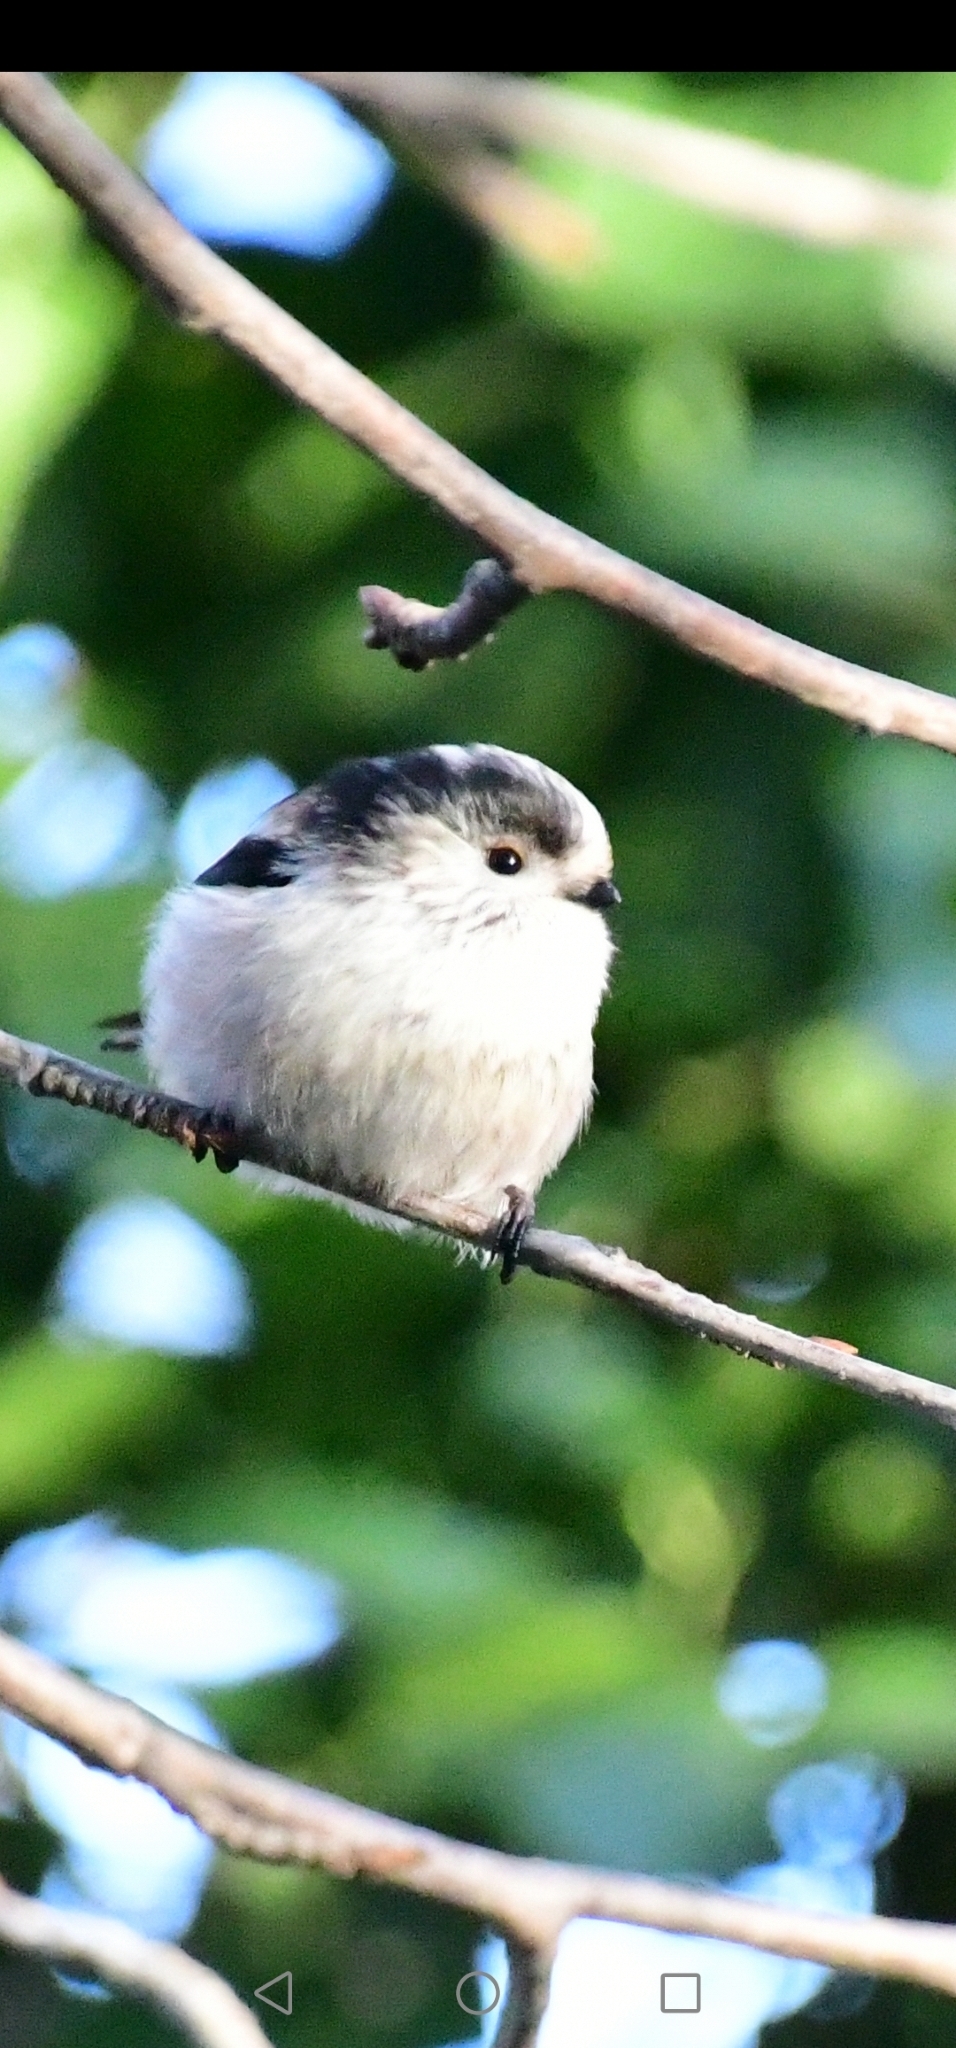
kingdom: Animalia
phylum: Chordata
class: Aves
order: Passeriformes
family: Aegithalidae
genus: Aegithalos
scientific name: Aegithalos caudatus
